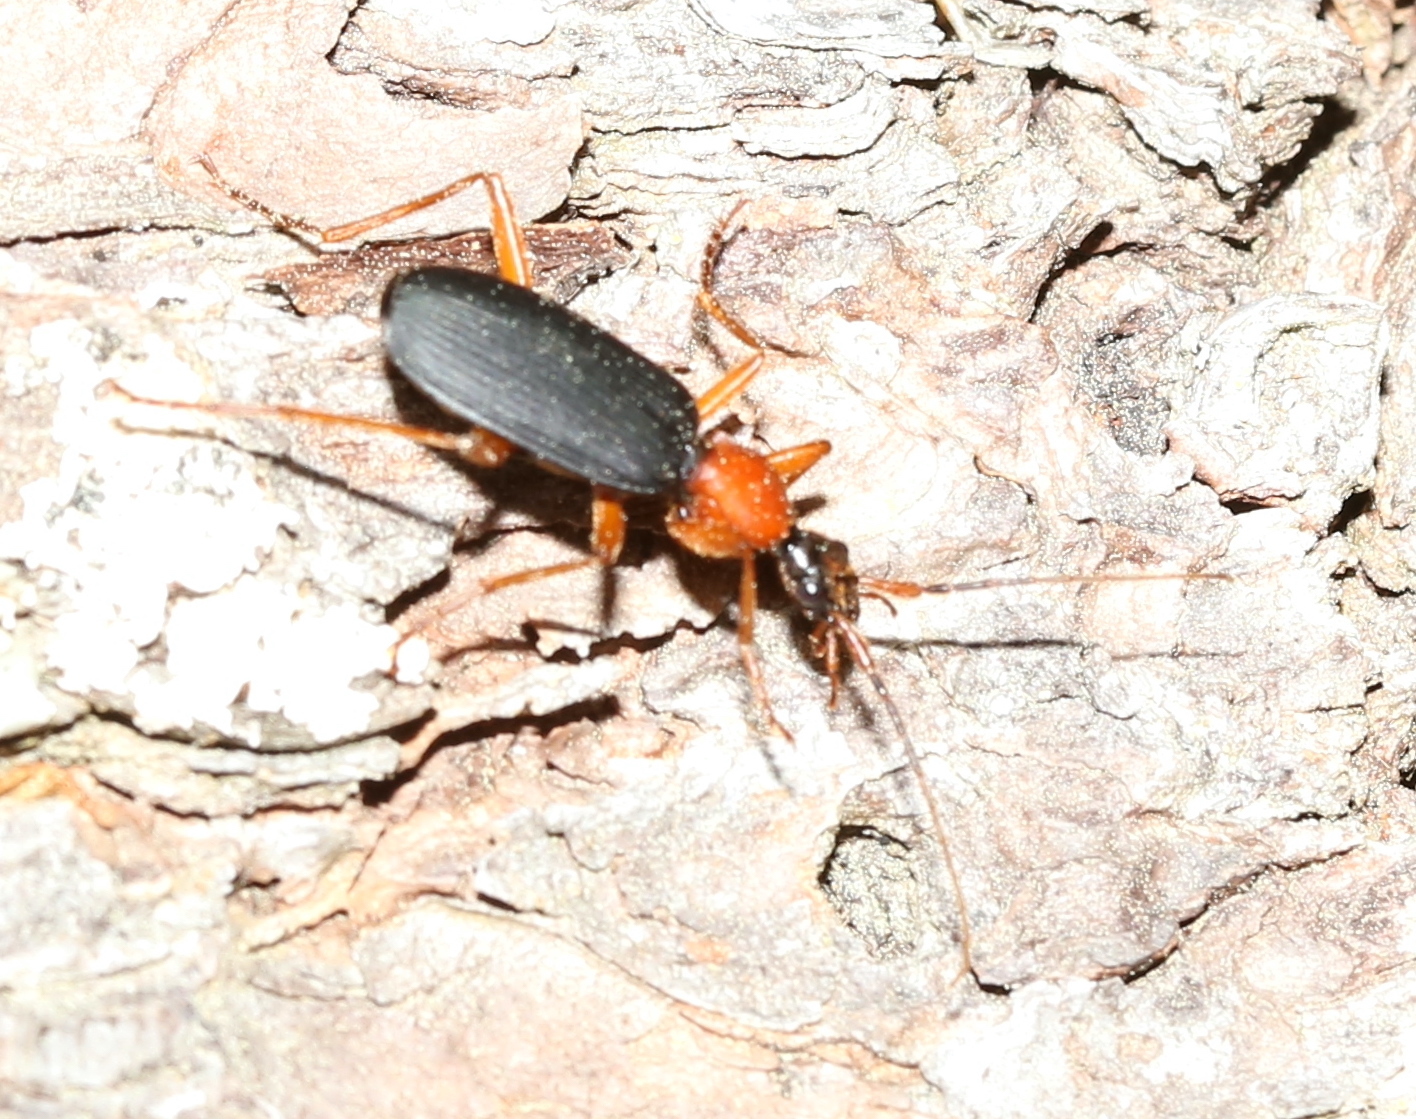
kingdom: Animalia
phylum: Arthropoda
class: Insecta
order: Coleoptera
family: Carabidae
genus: Galerita
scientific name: Galerita bicolor
